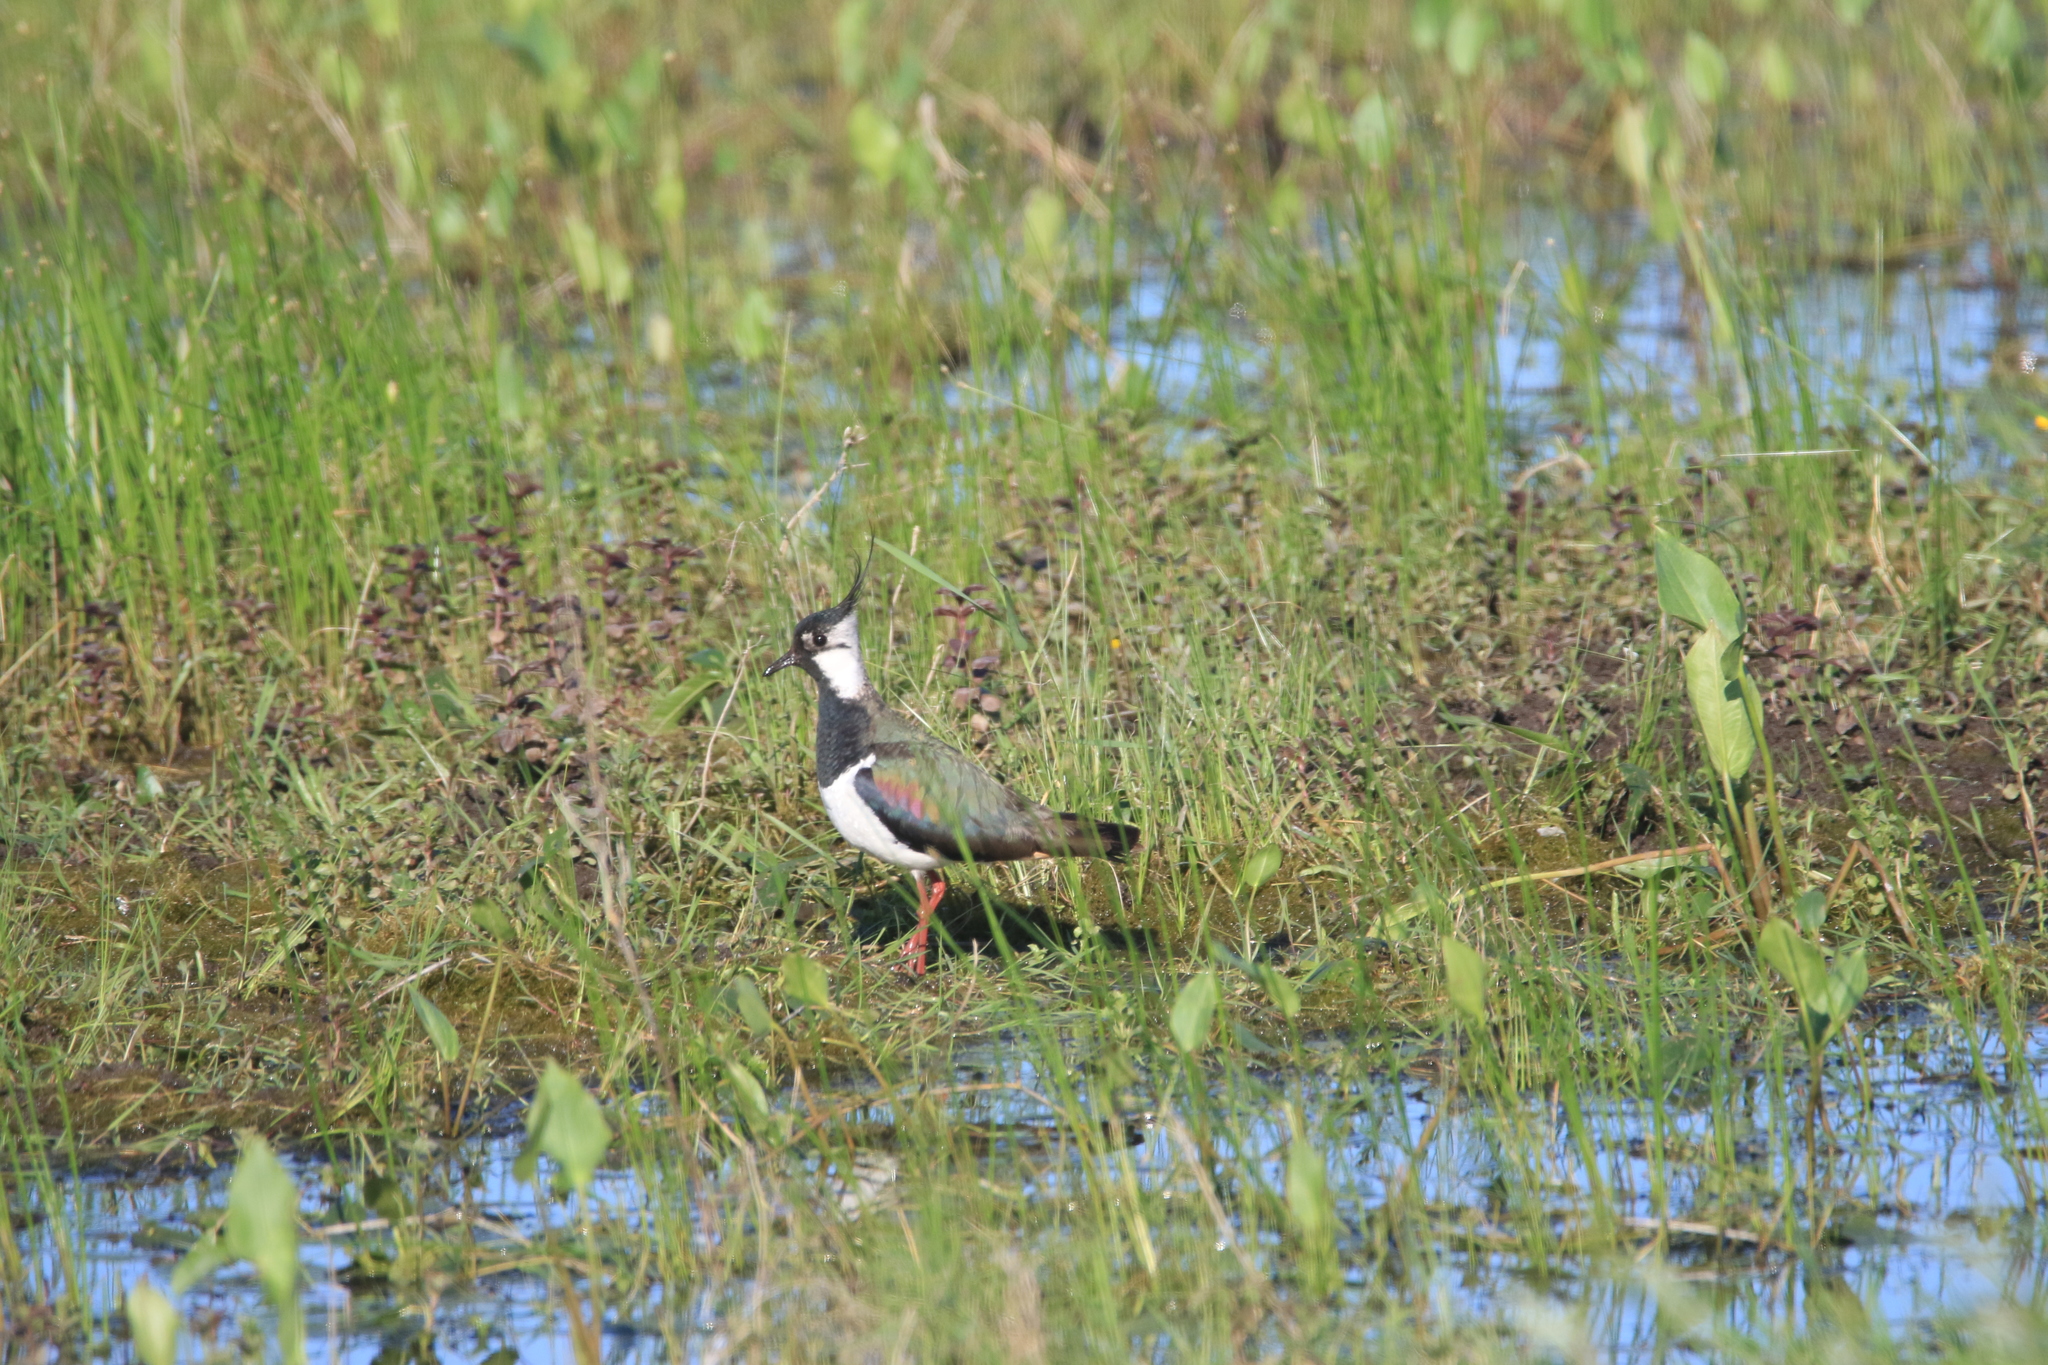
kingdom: Animalia
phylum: Chordata
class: Aves
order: Charadriiformes
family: Charadriidae
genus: Vanellus
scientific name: Vanellus vanellus
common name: Northern lapwing
